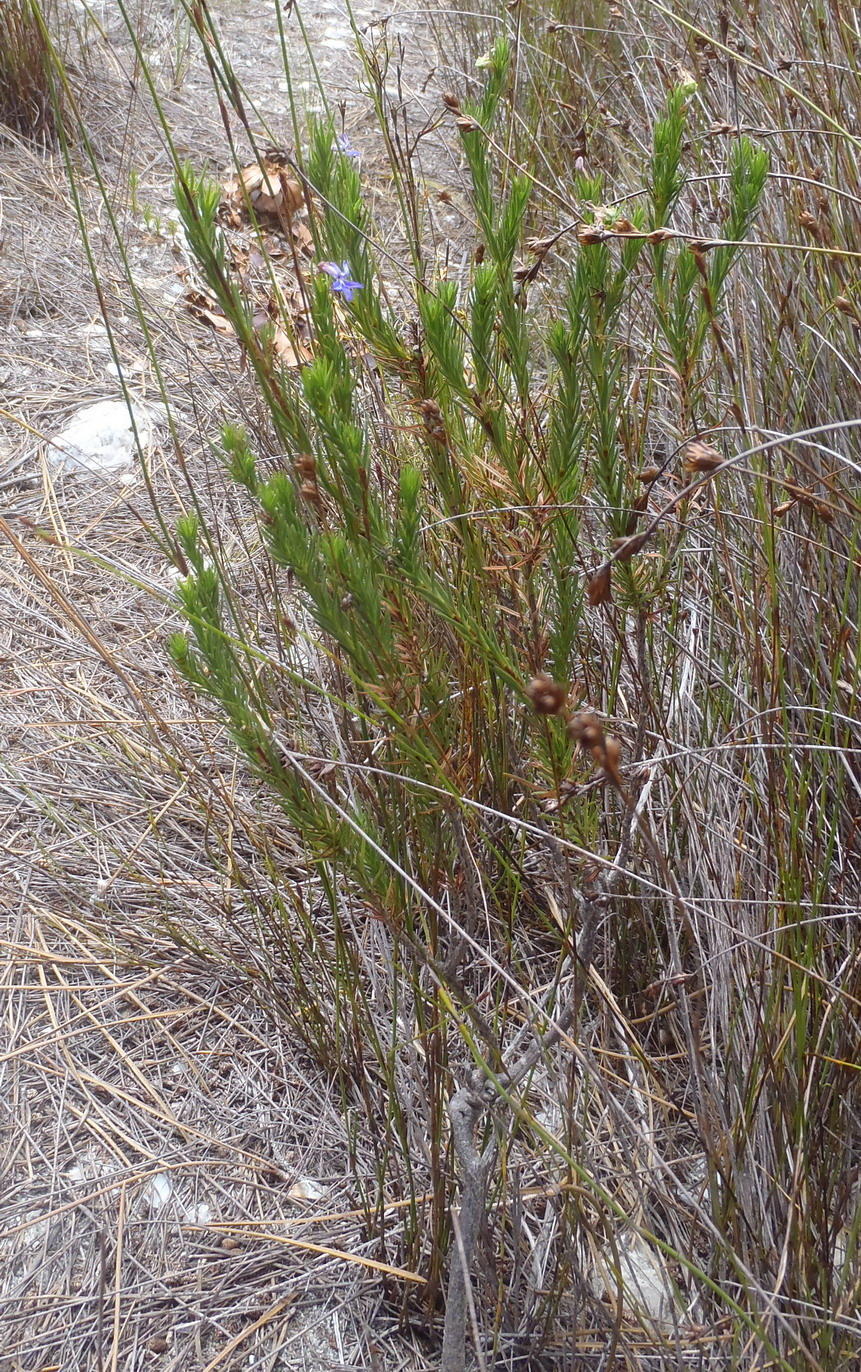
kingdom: Plantae
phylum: Tracheophyta
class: Magnoliopsida
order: Asterales
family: Campanulaceae
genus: Lobelia
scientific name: Lobelia pinifolia
